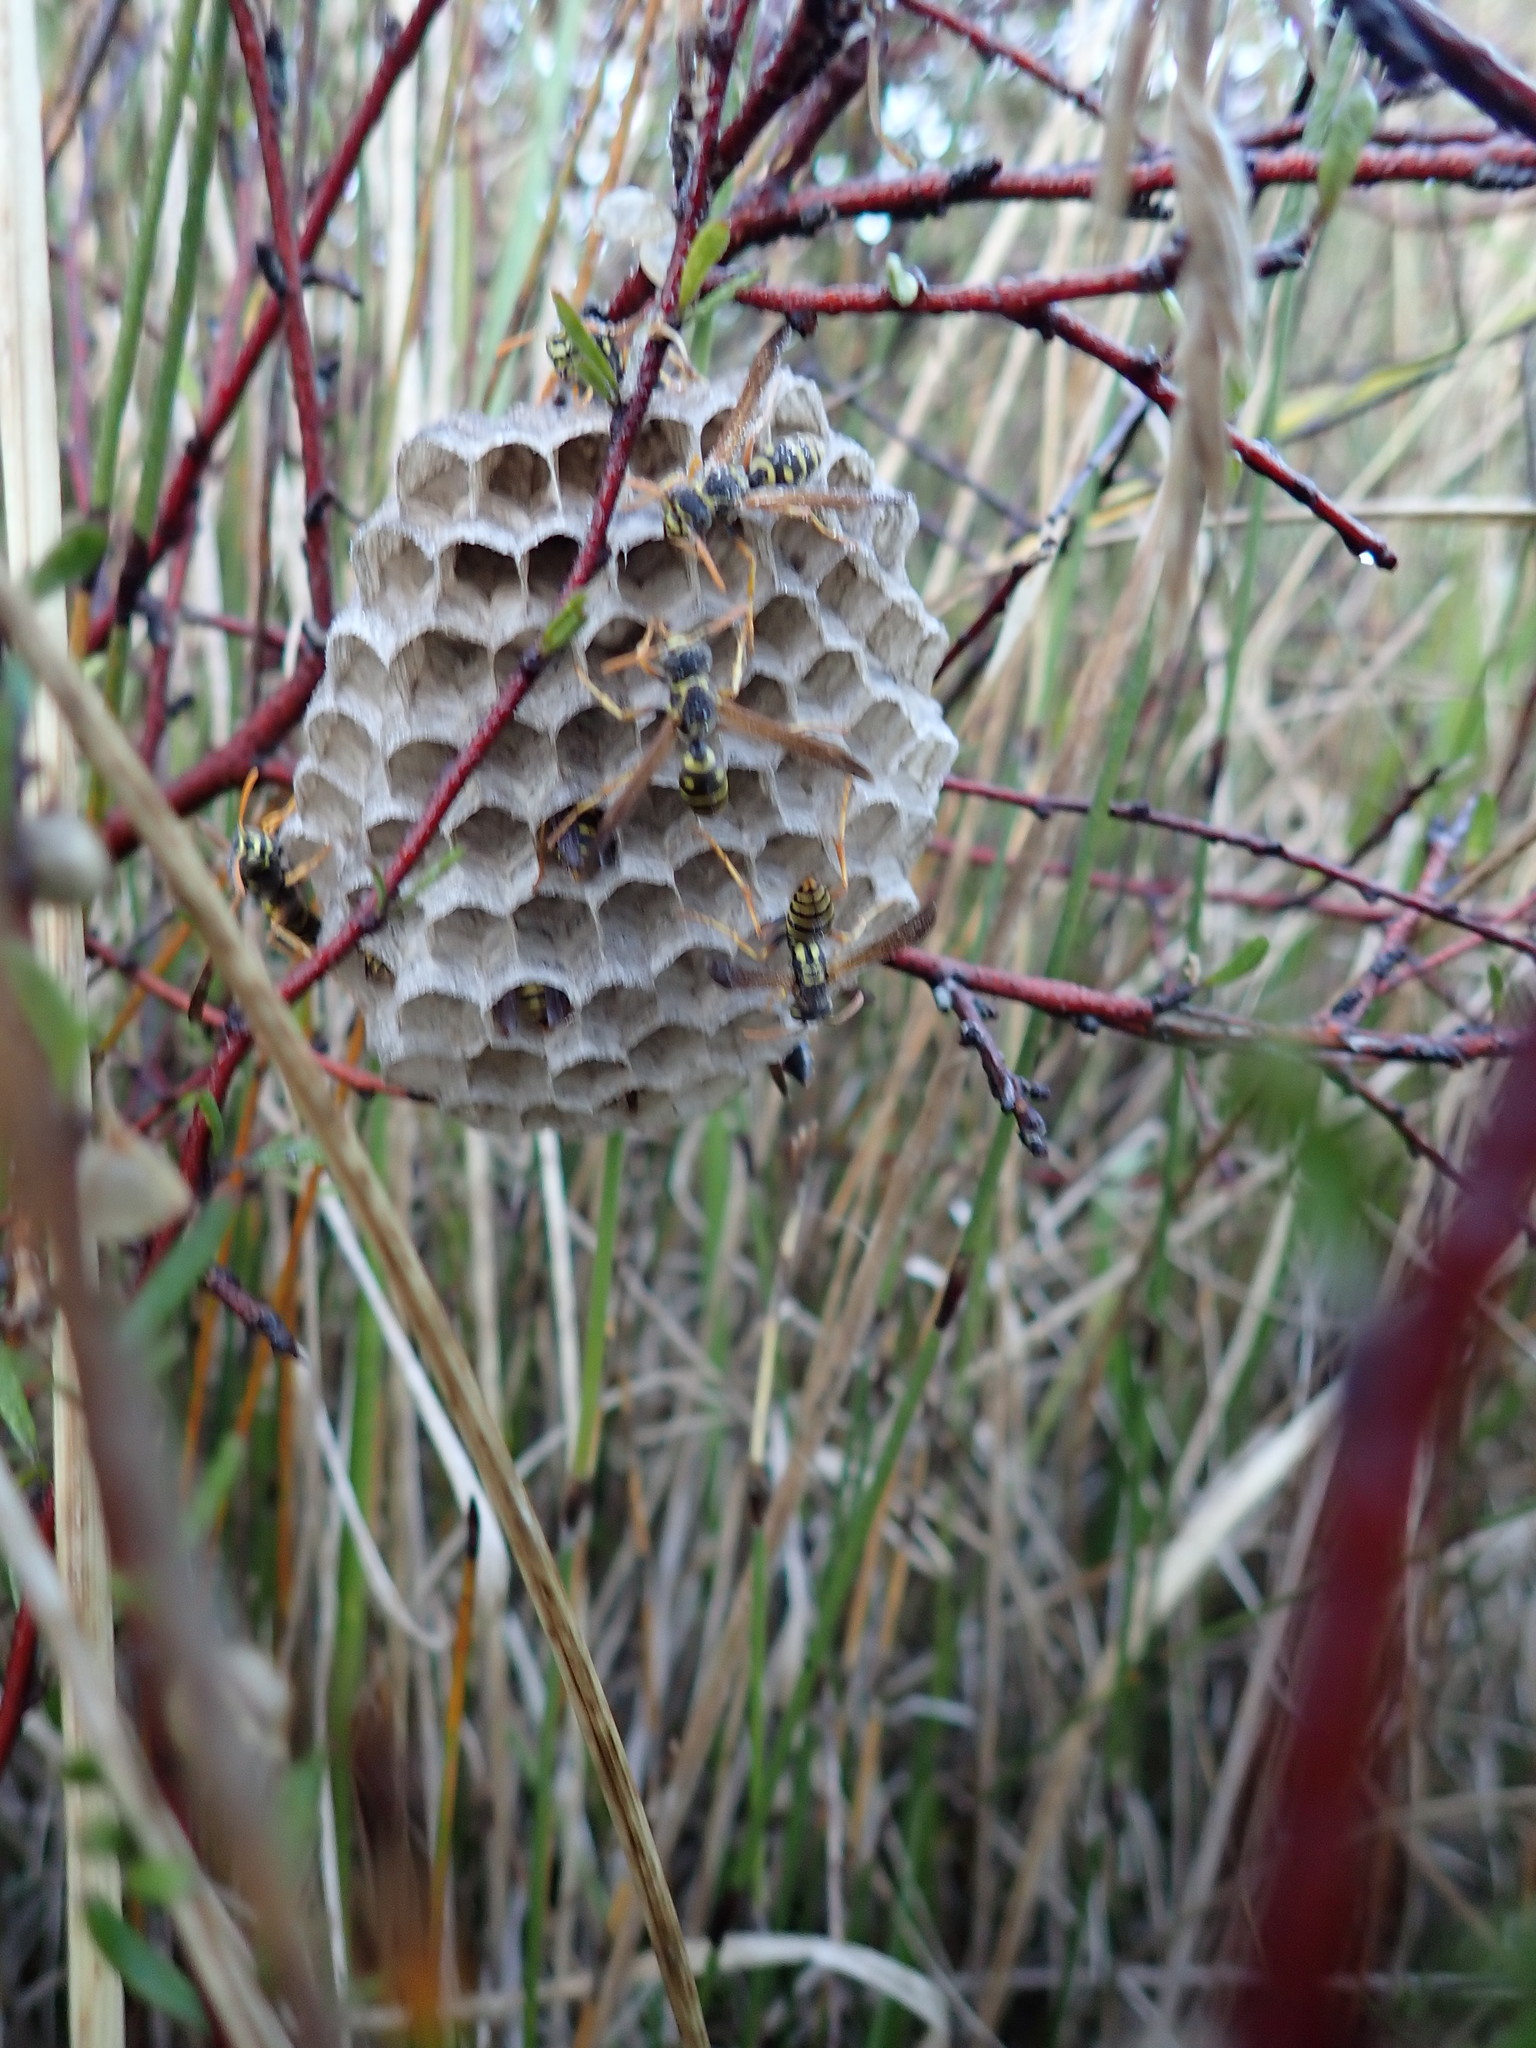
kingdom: Animalia
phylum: Arthropoda
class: Insecta
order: Hymenoptera
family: Eumenidae
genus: Polistes
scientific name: Polistes chinensis
